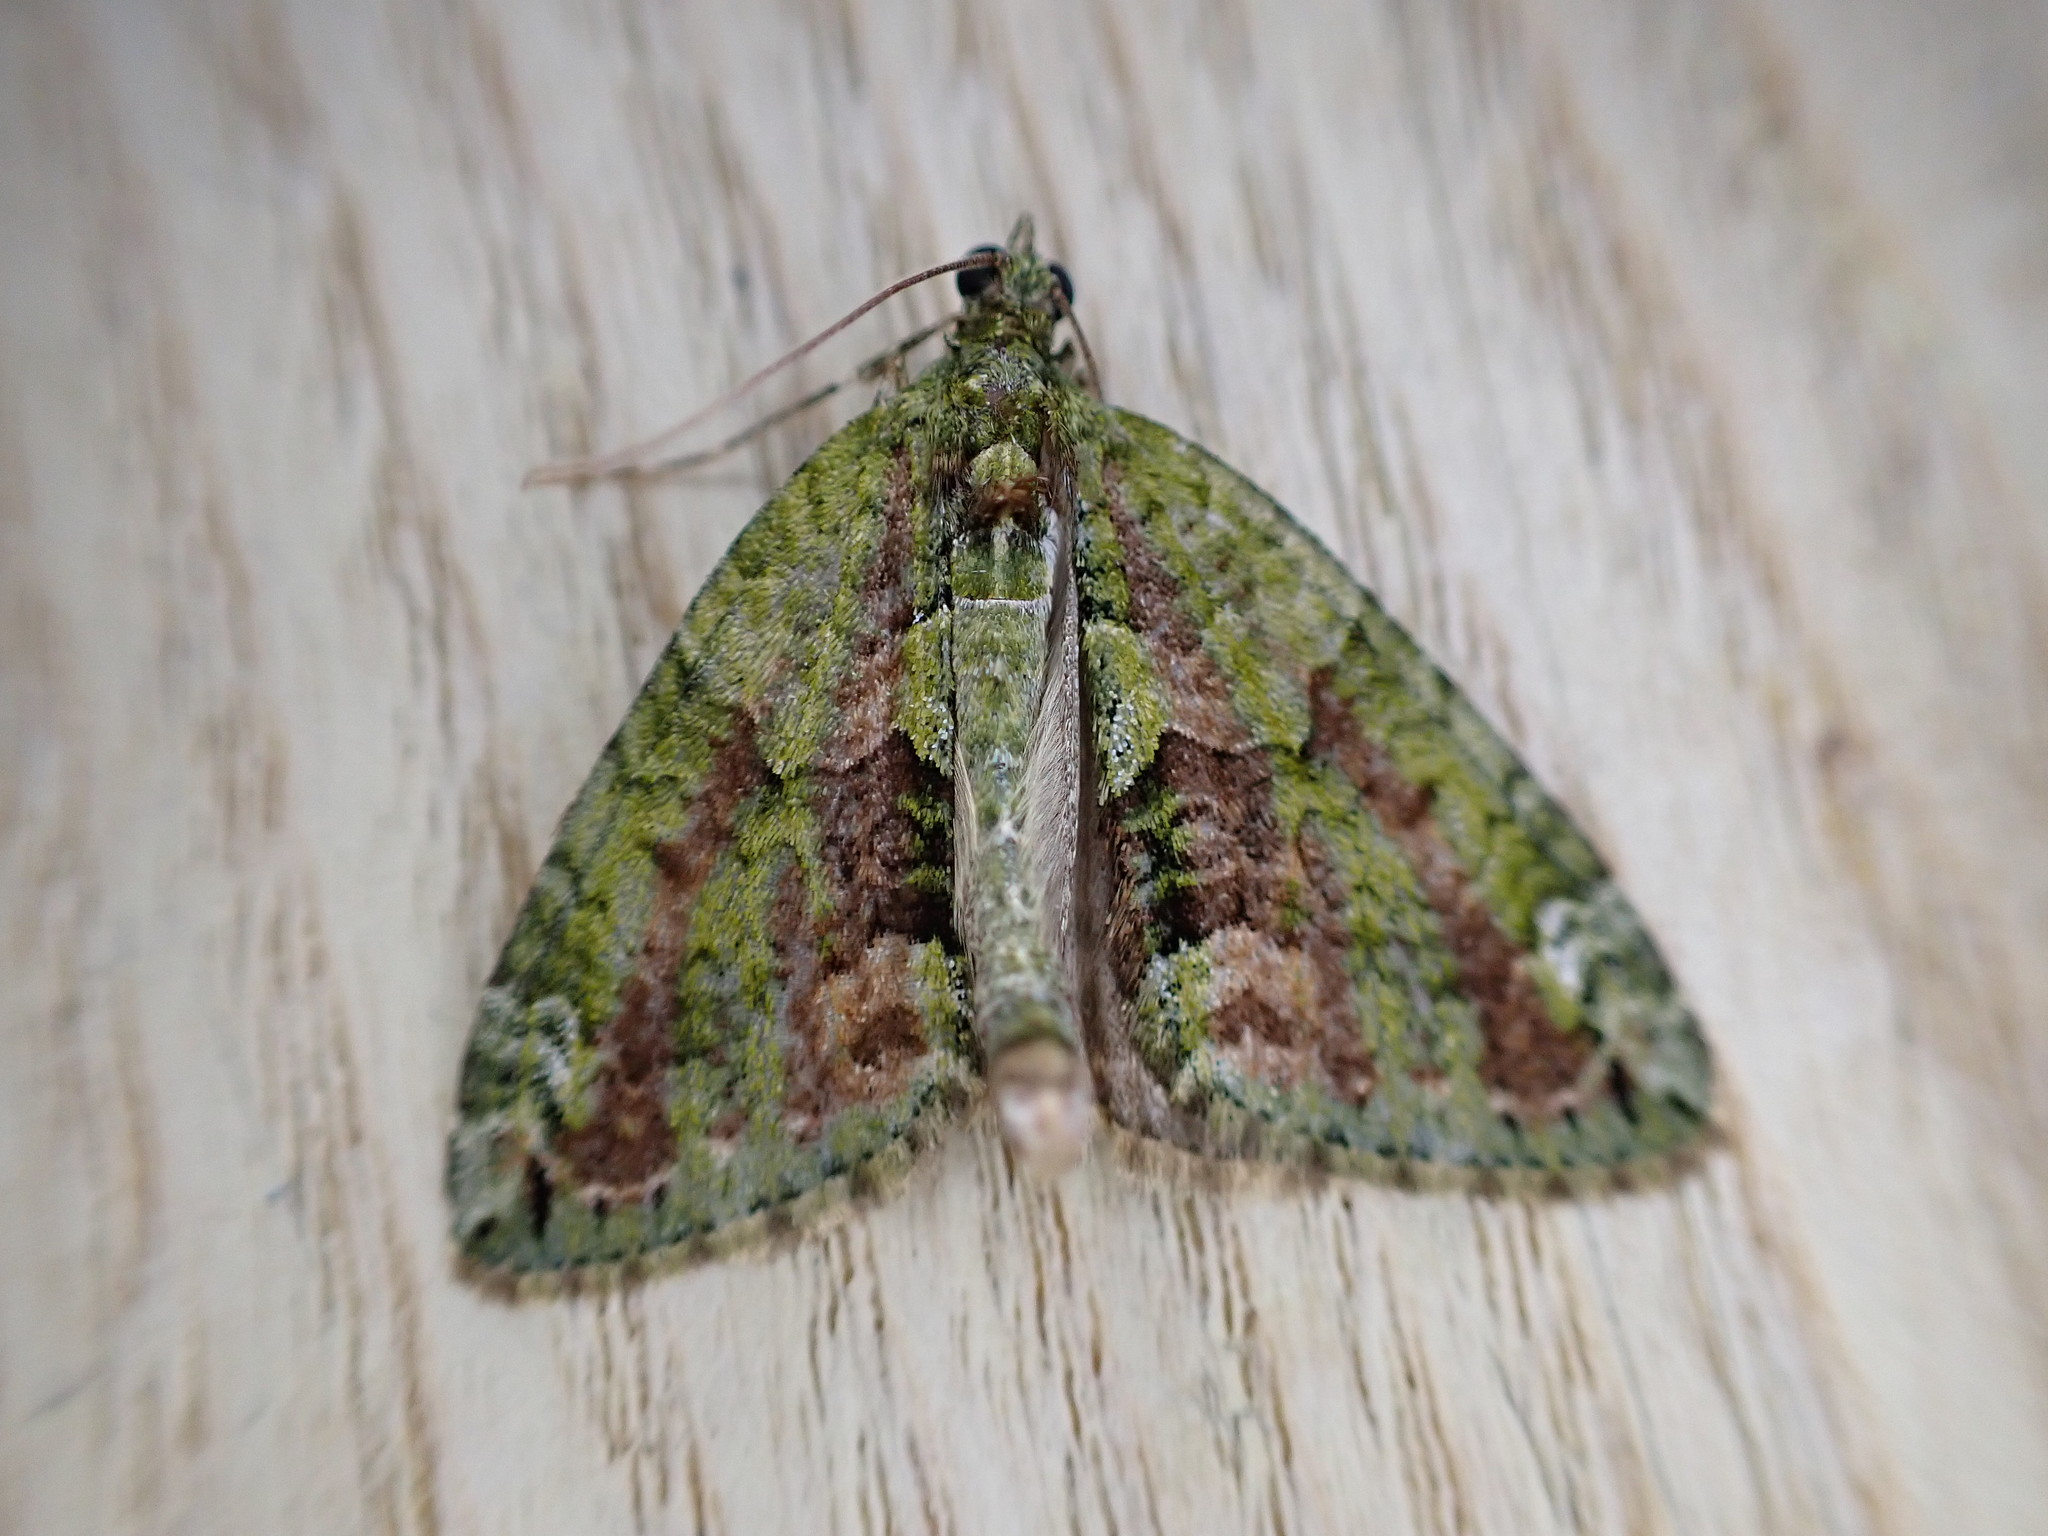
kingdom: Animalia
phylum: Arthropoda
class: Insecta
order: Lepidoptera
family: Geometridae
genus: Chloroclysta
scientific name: Chloroclysta siterata
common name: Red-green carpet
